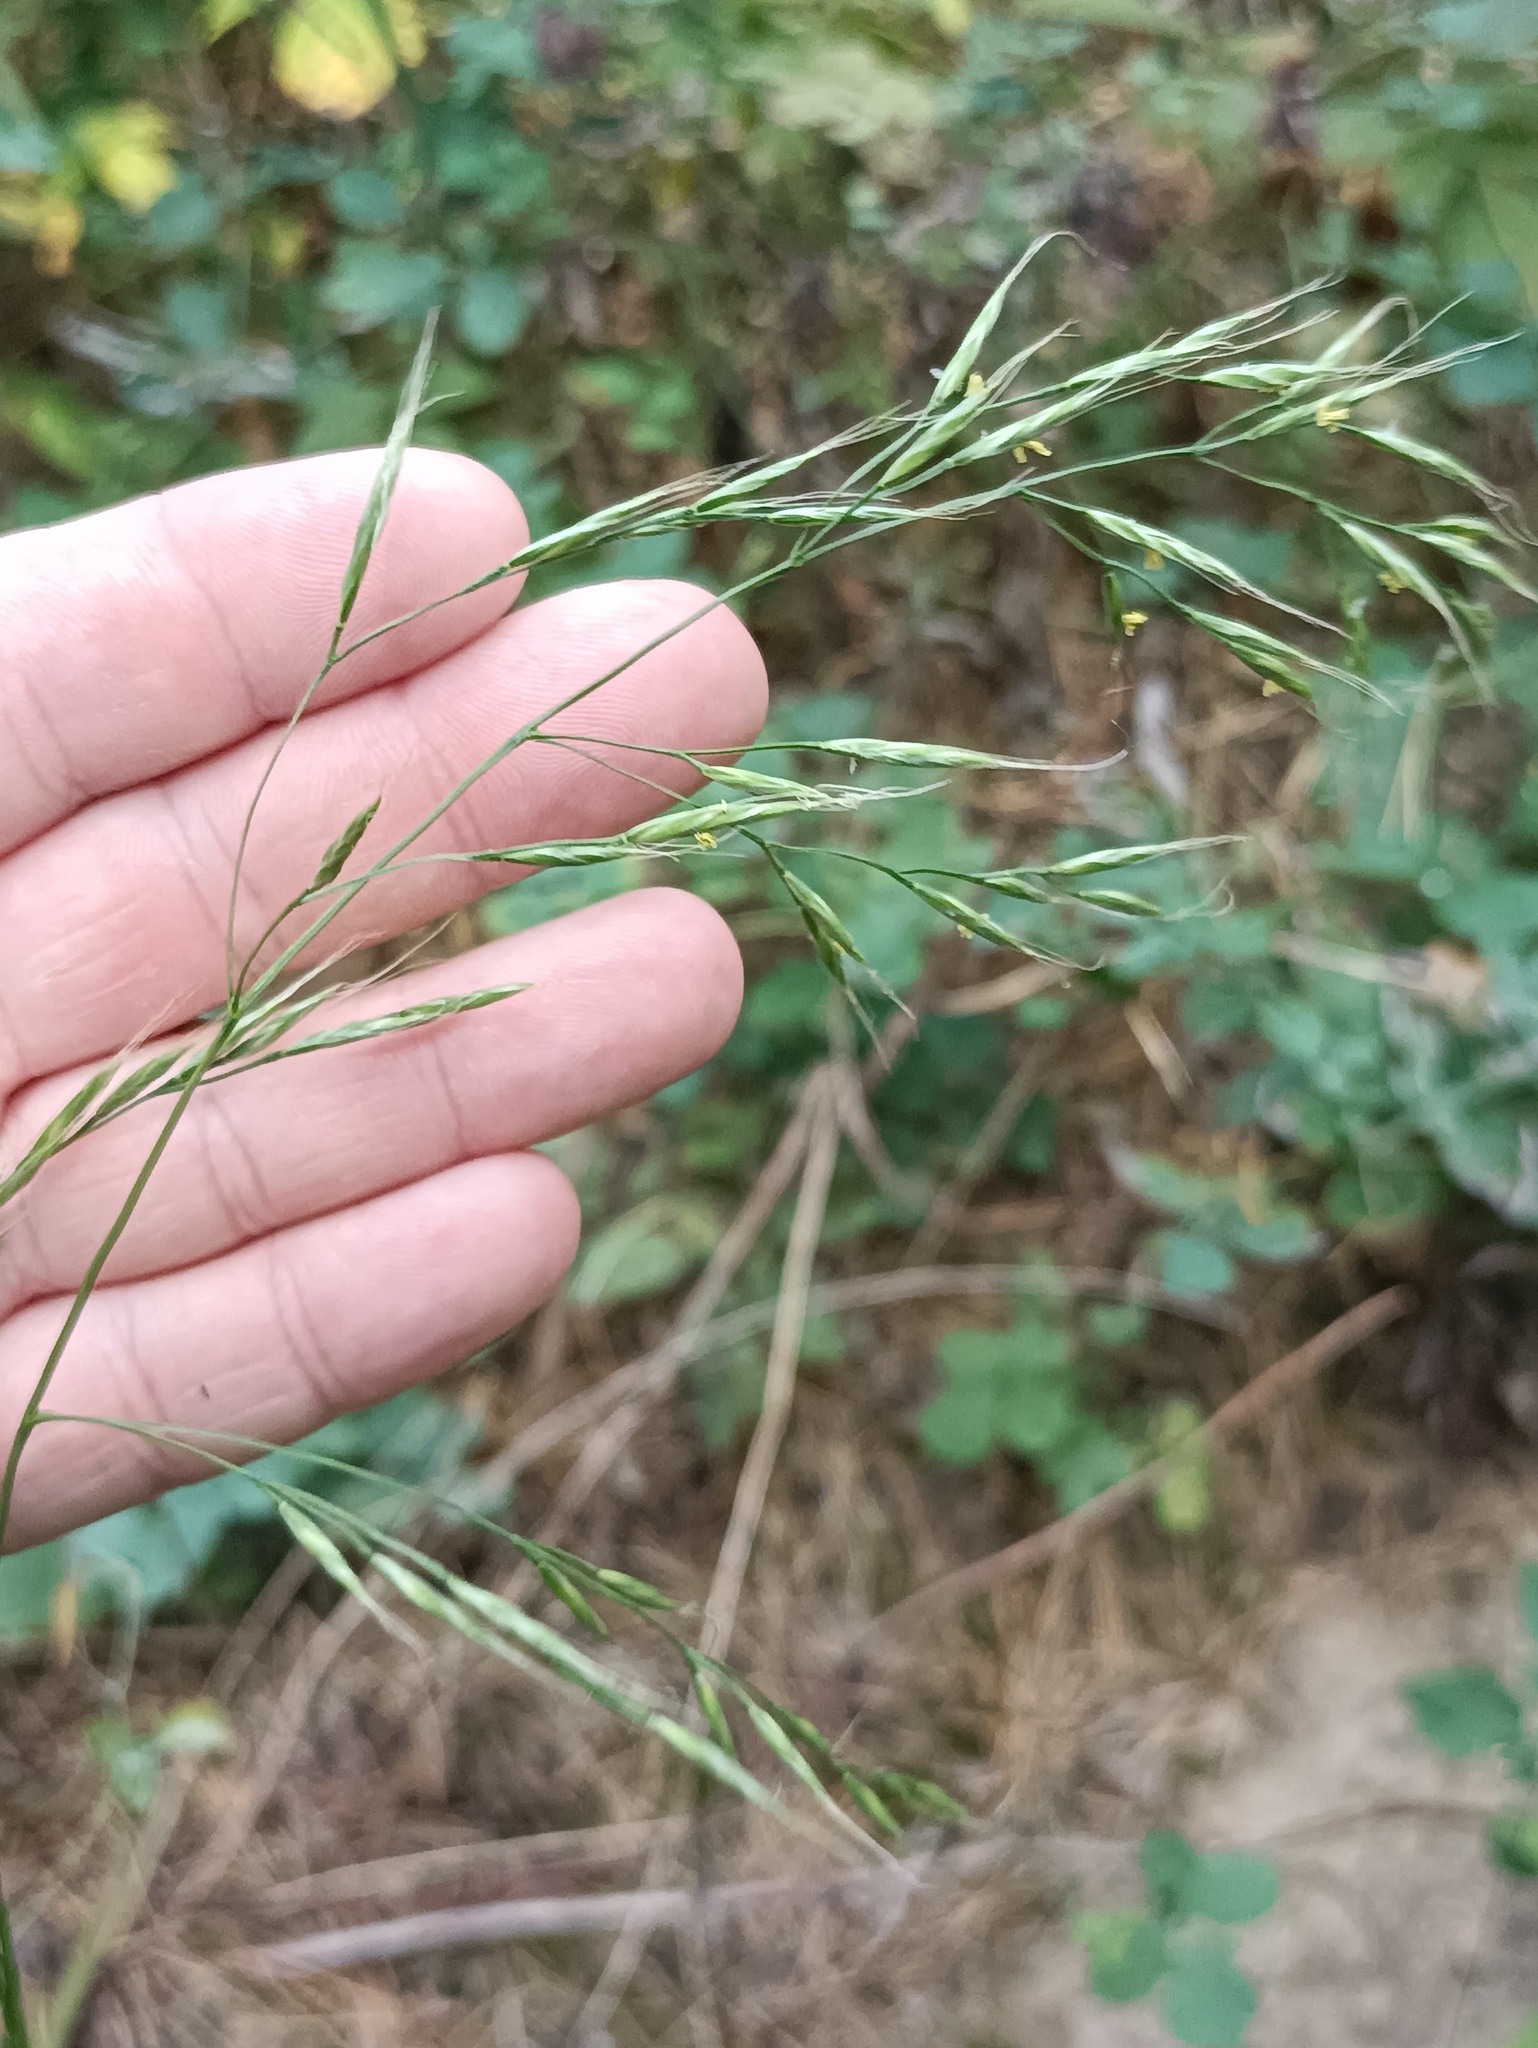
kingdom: Plantae
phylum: Tracheophyta
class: Liliopsida
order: Poales
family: Poaceae
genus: Bromus
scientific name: Bromus inermis
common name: Smooth brome
